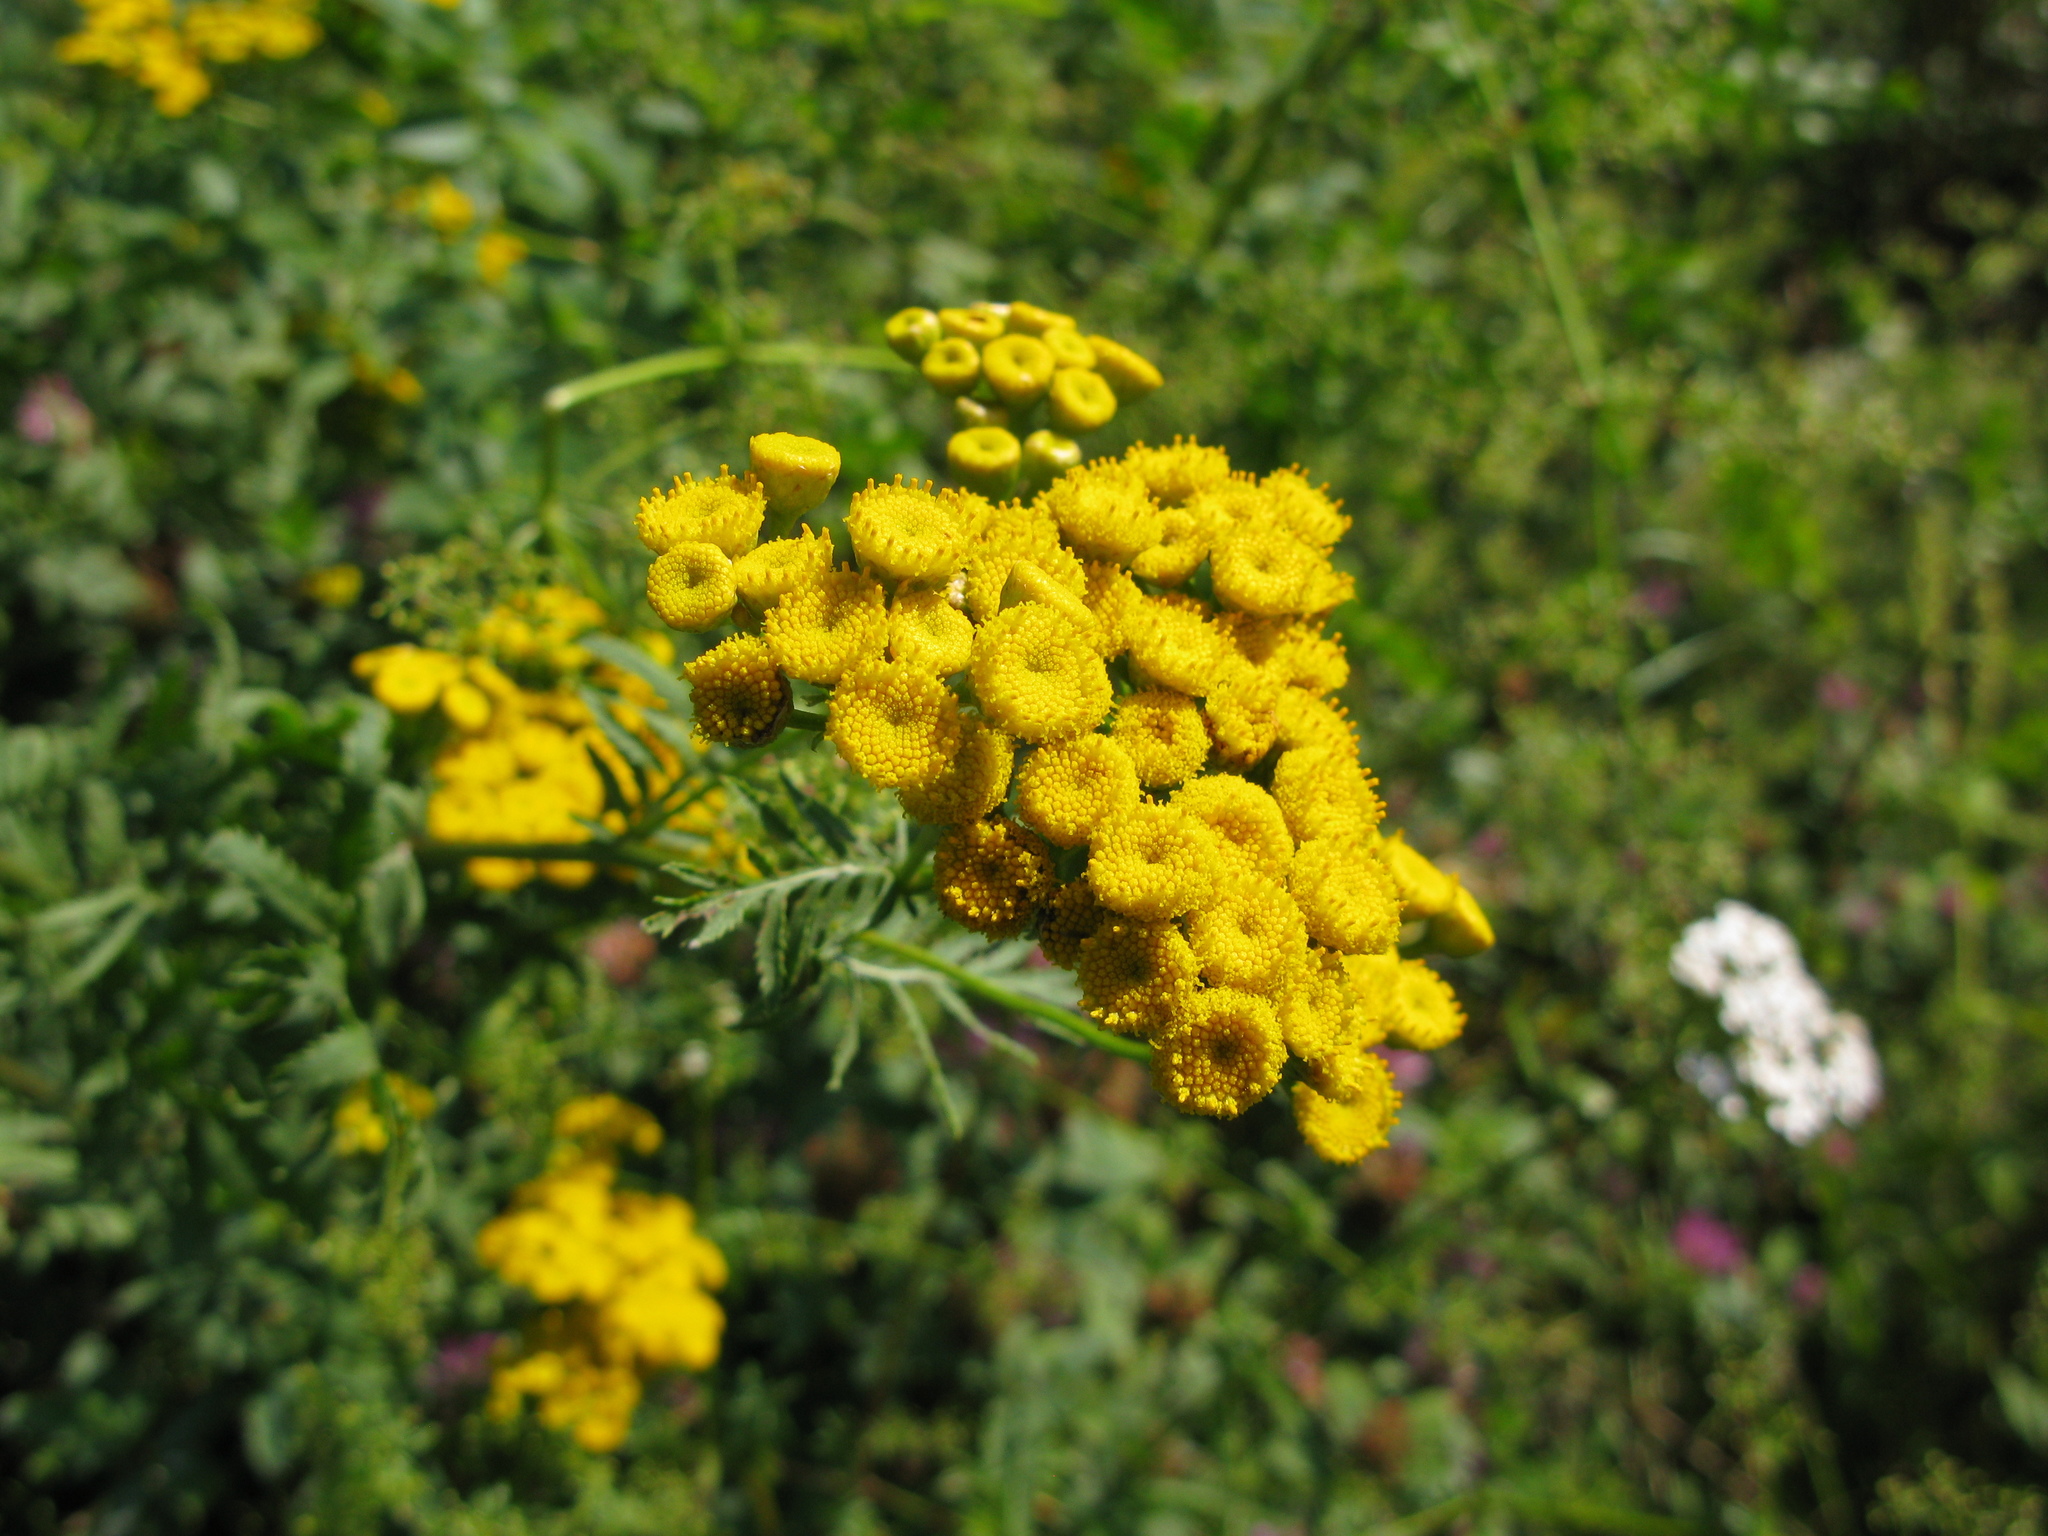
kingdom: Plantae
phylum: Tracheophyta
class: Magnoliopsida
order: Asterales
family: Asteraceae
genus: Tanacetum
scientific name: Tanacetum vulgare
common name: Common tansy
